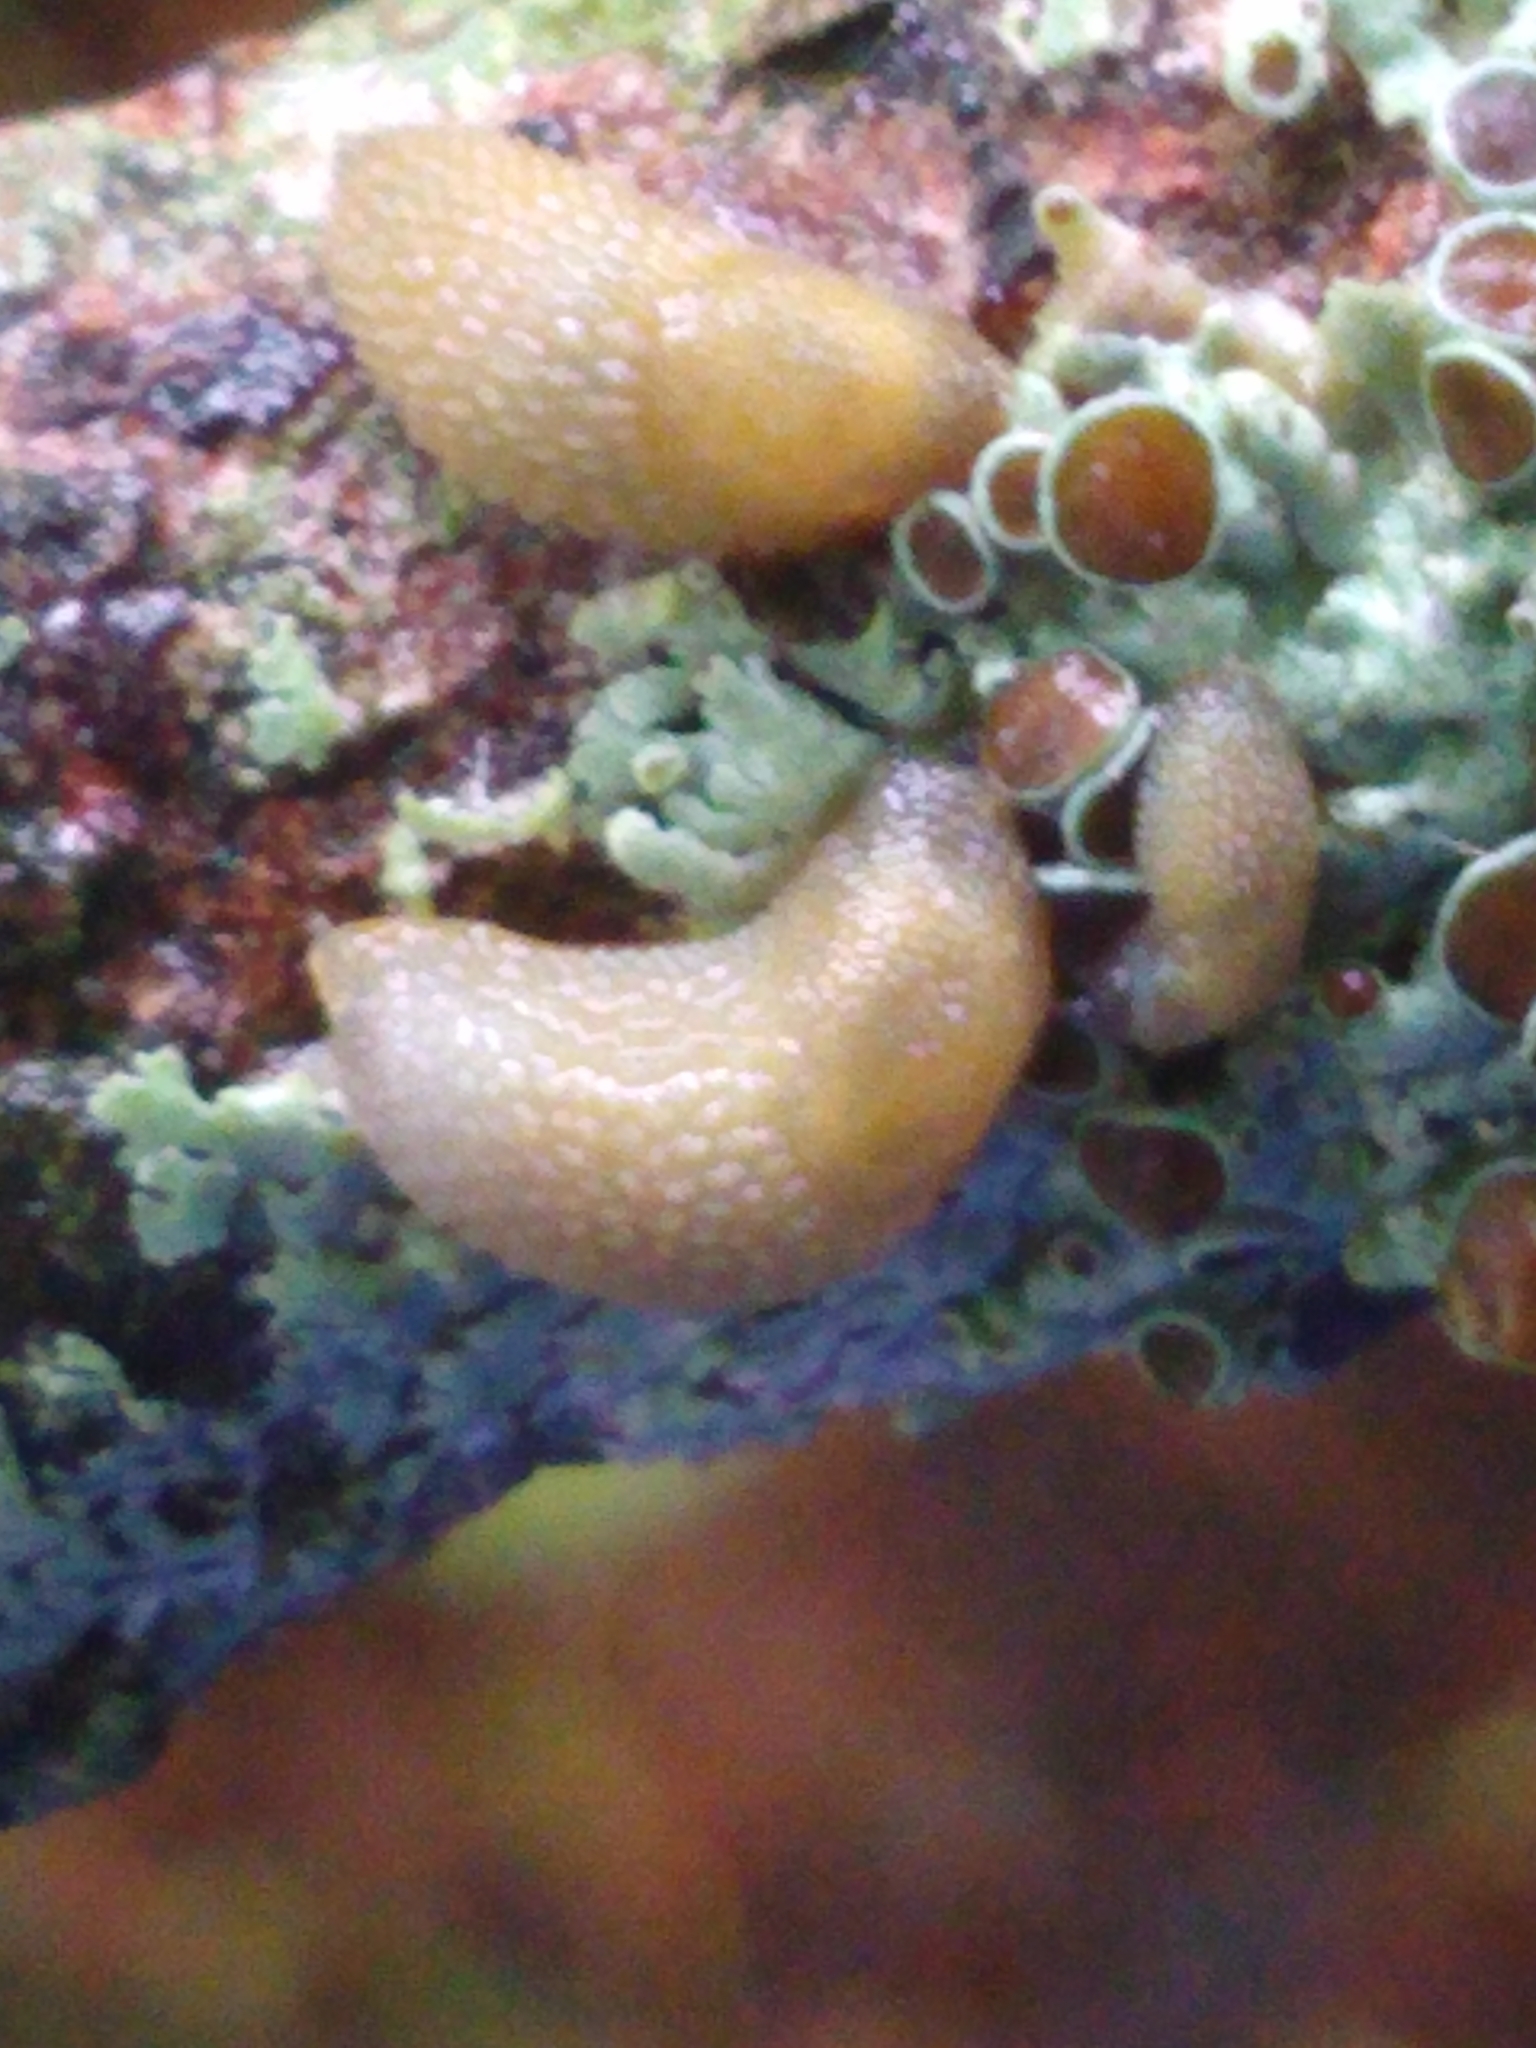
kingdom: Animalia
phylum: Mollusca
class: Gastropoda
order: Stylommatophora
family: Arionidae
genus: Arion
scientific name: Arion intermedius
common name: Hedgehog slug
